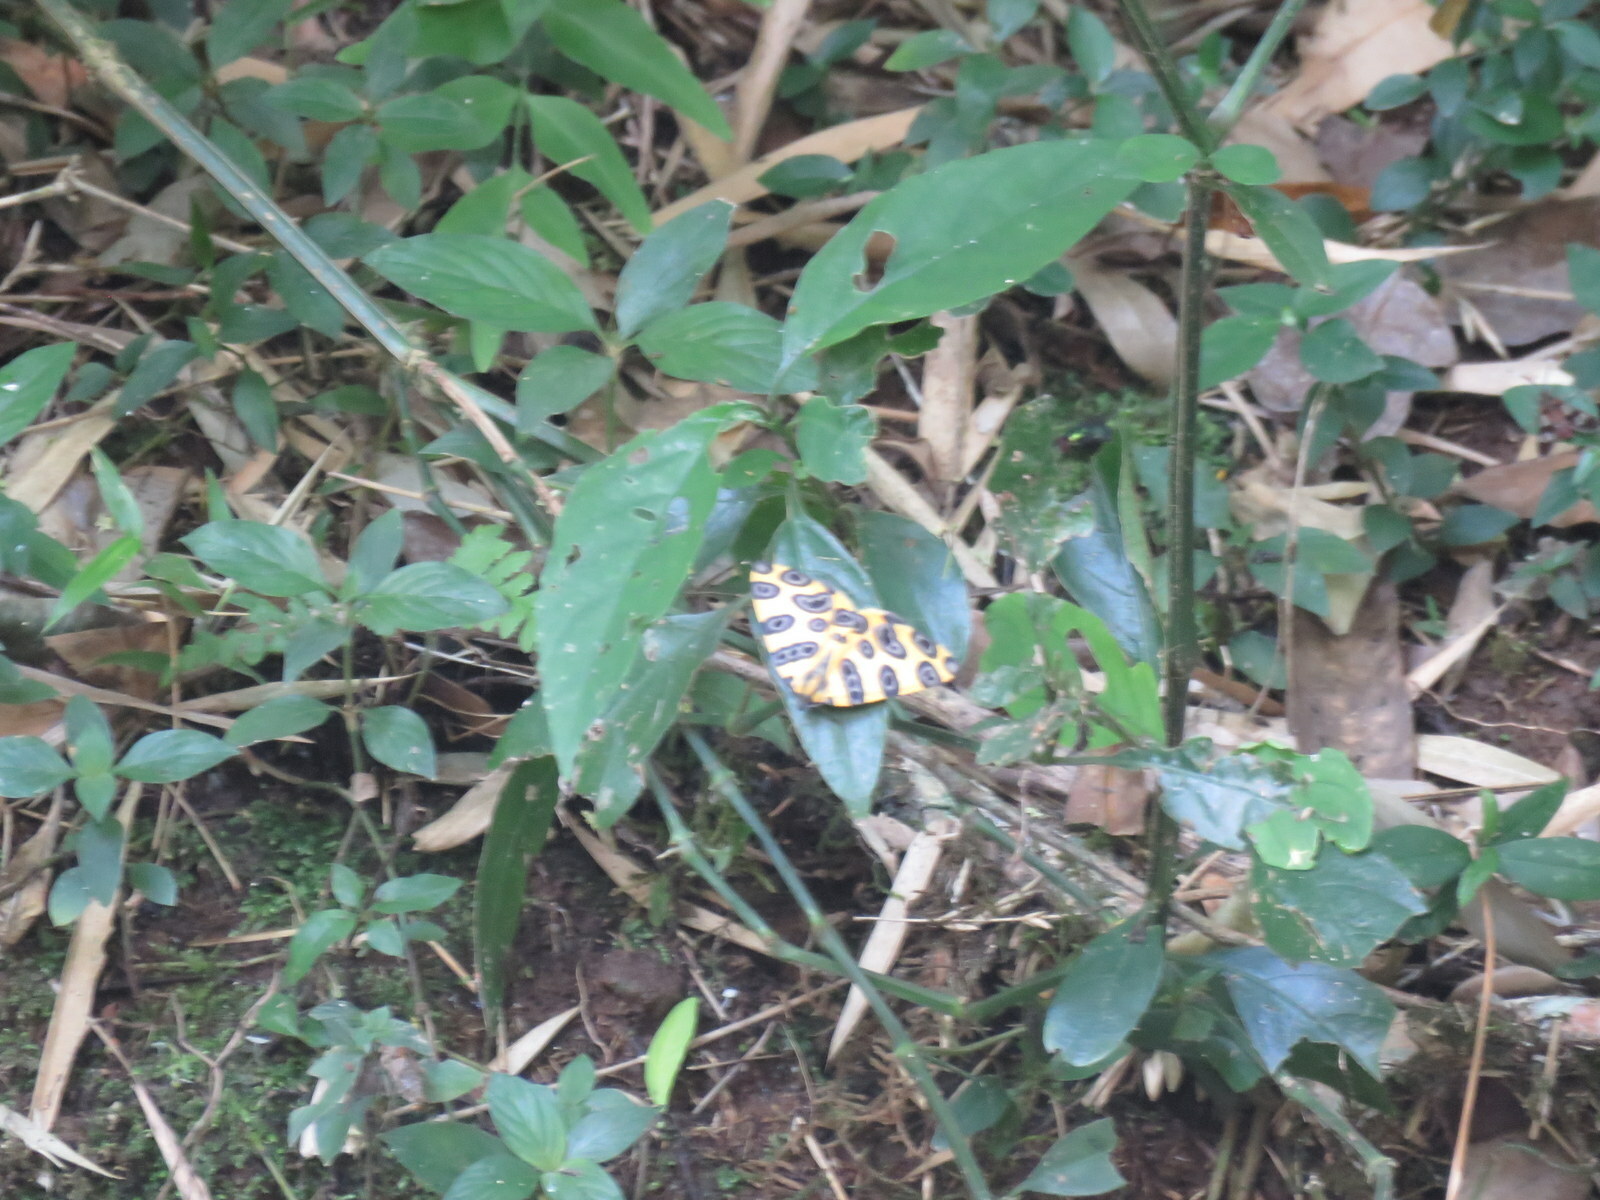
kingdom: Animalia
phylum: Arthropoda
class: Insecta
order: Lepidoptera
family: Geometridae
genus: Pantherodes
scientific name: Pantherodes pardalaria
